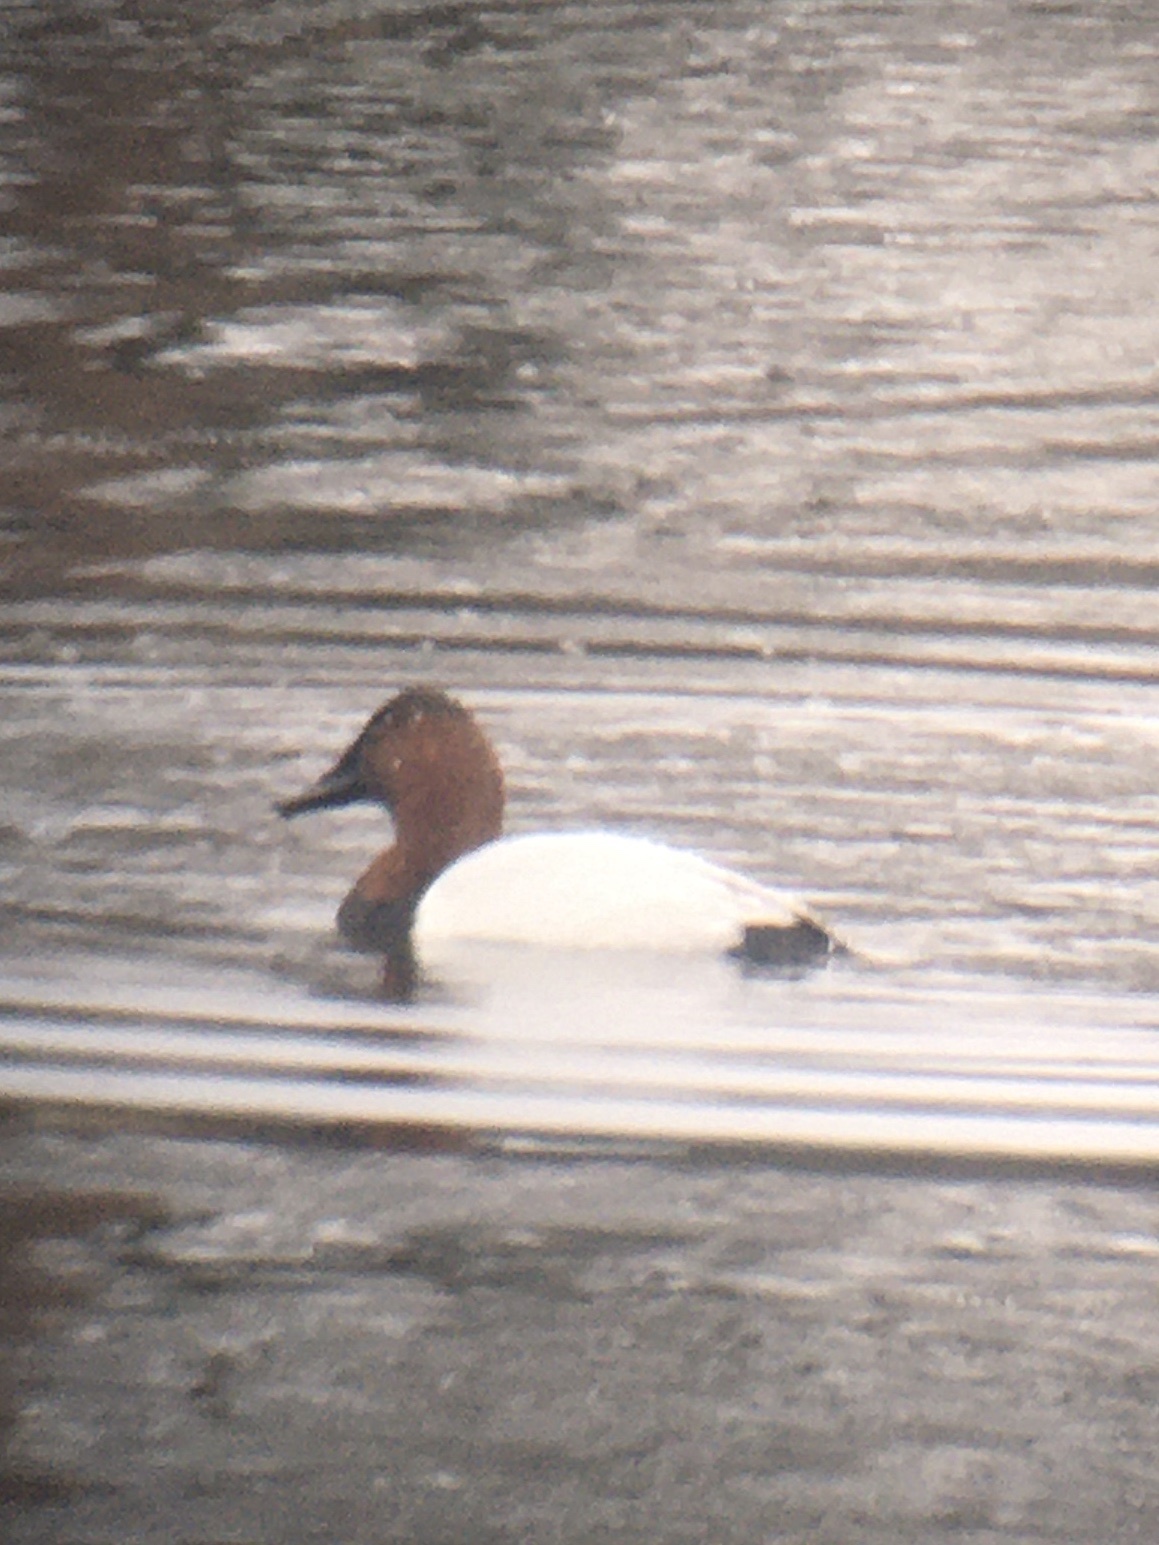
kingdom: Animalia
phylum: Chordata
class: Aves
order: Anseriformes
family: Anatidae
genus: Aythya
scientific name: Aythya valisineria
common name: Canvasback
